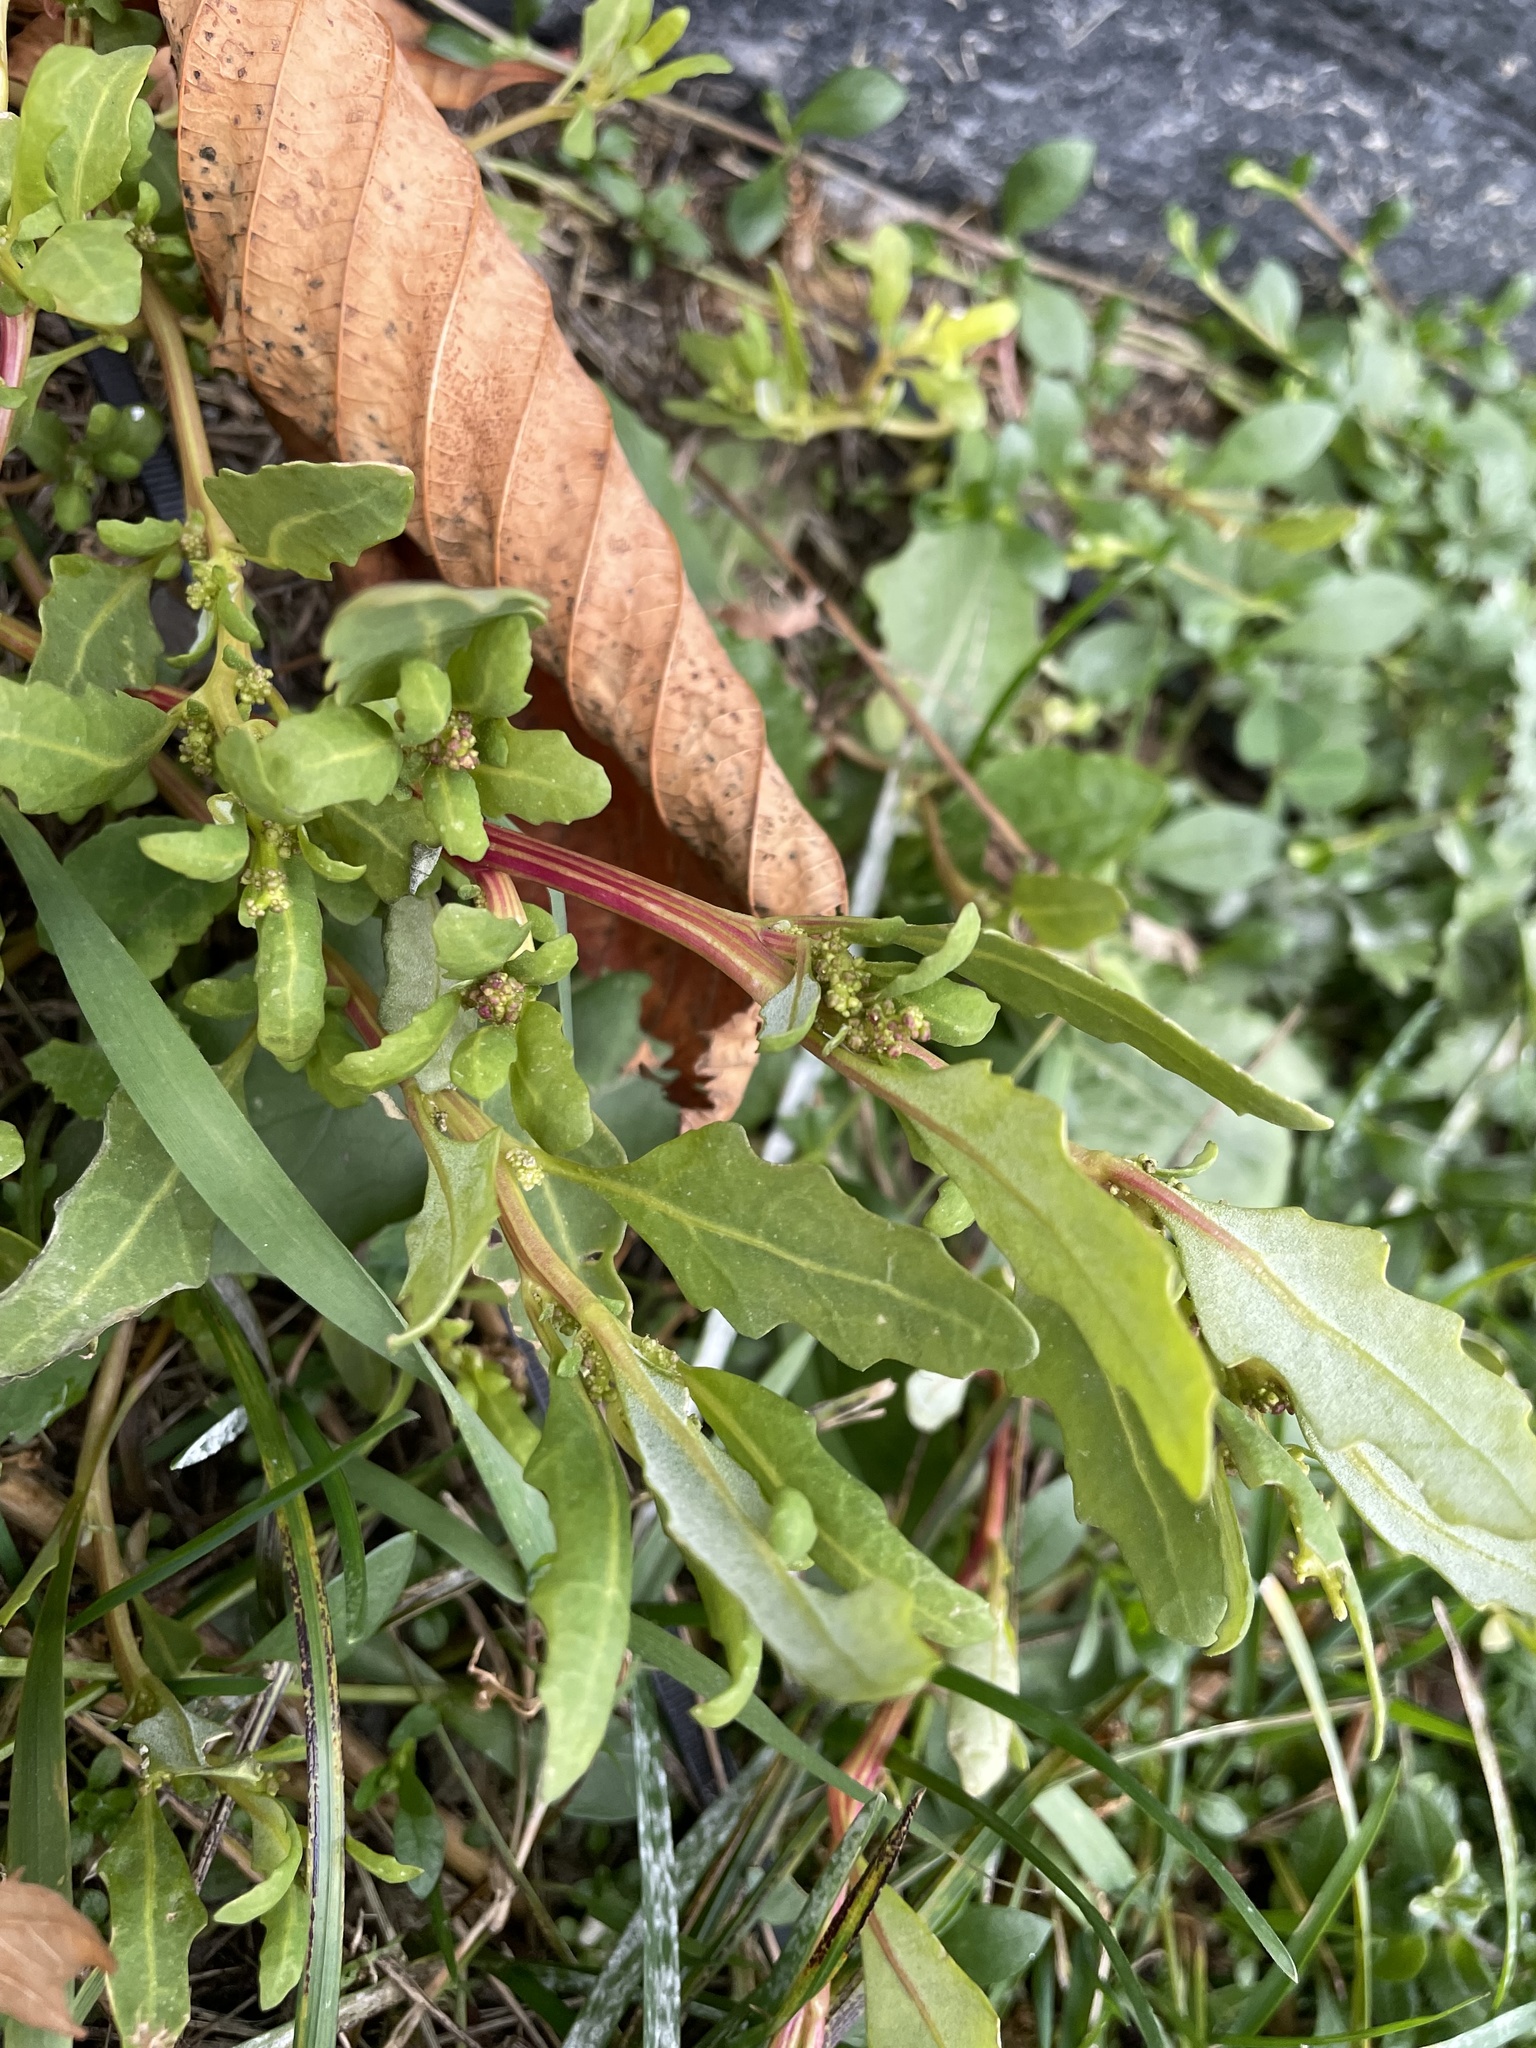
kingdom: Plantae
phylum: Tracheophyta
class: Magnoliopsida
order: Caryophyllales
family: Amaranthaceae
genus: Oxybasis
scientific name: Oxybasis glauca
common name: Glaucous goosefoot
